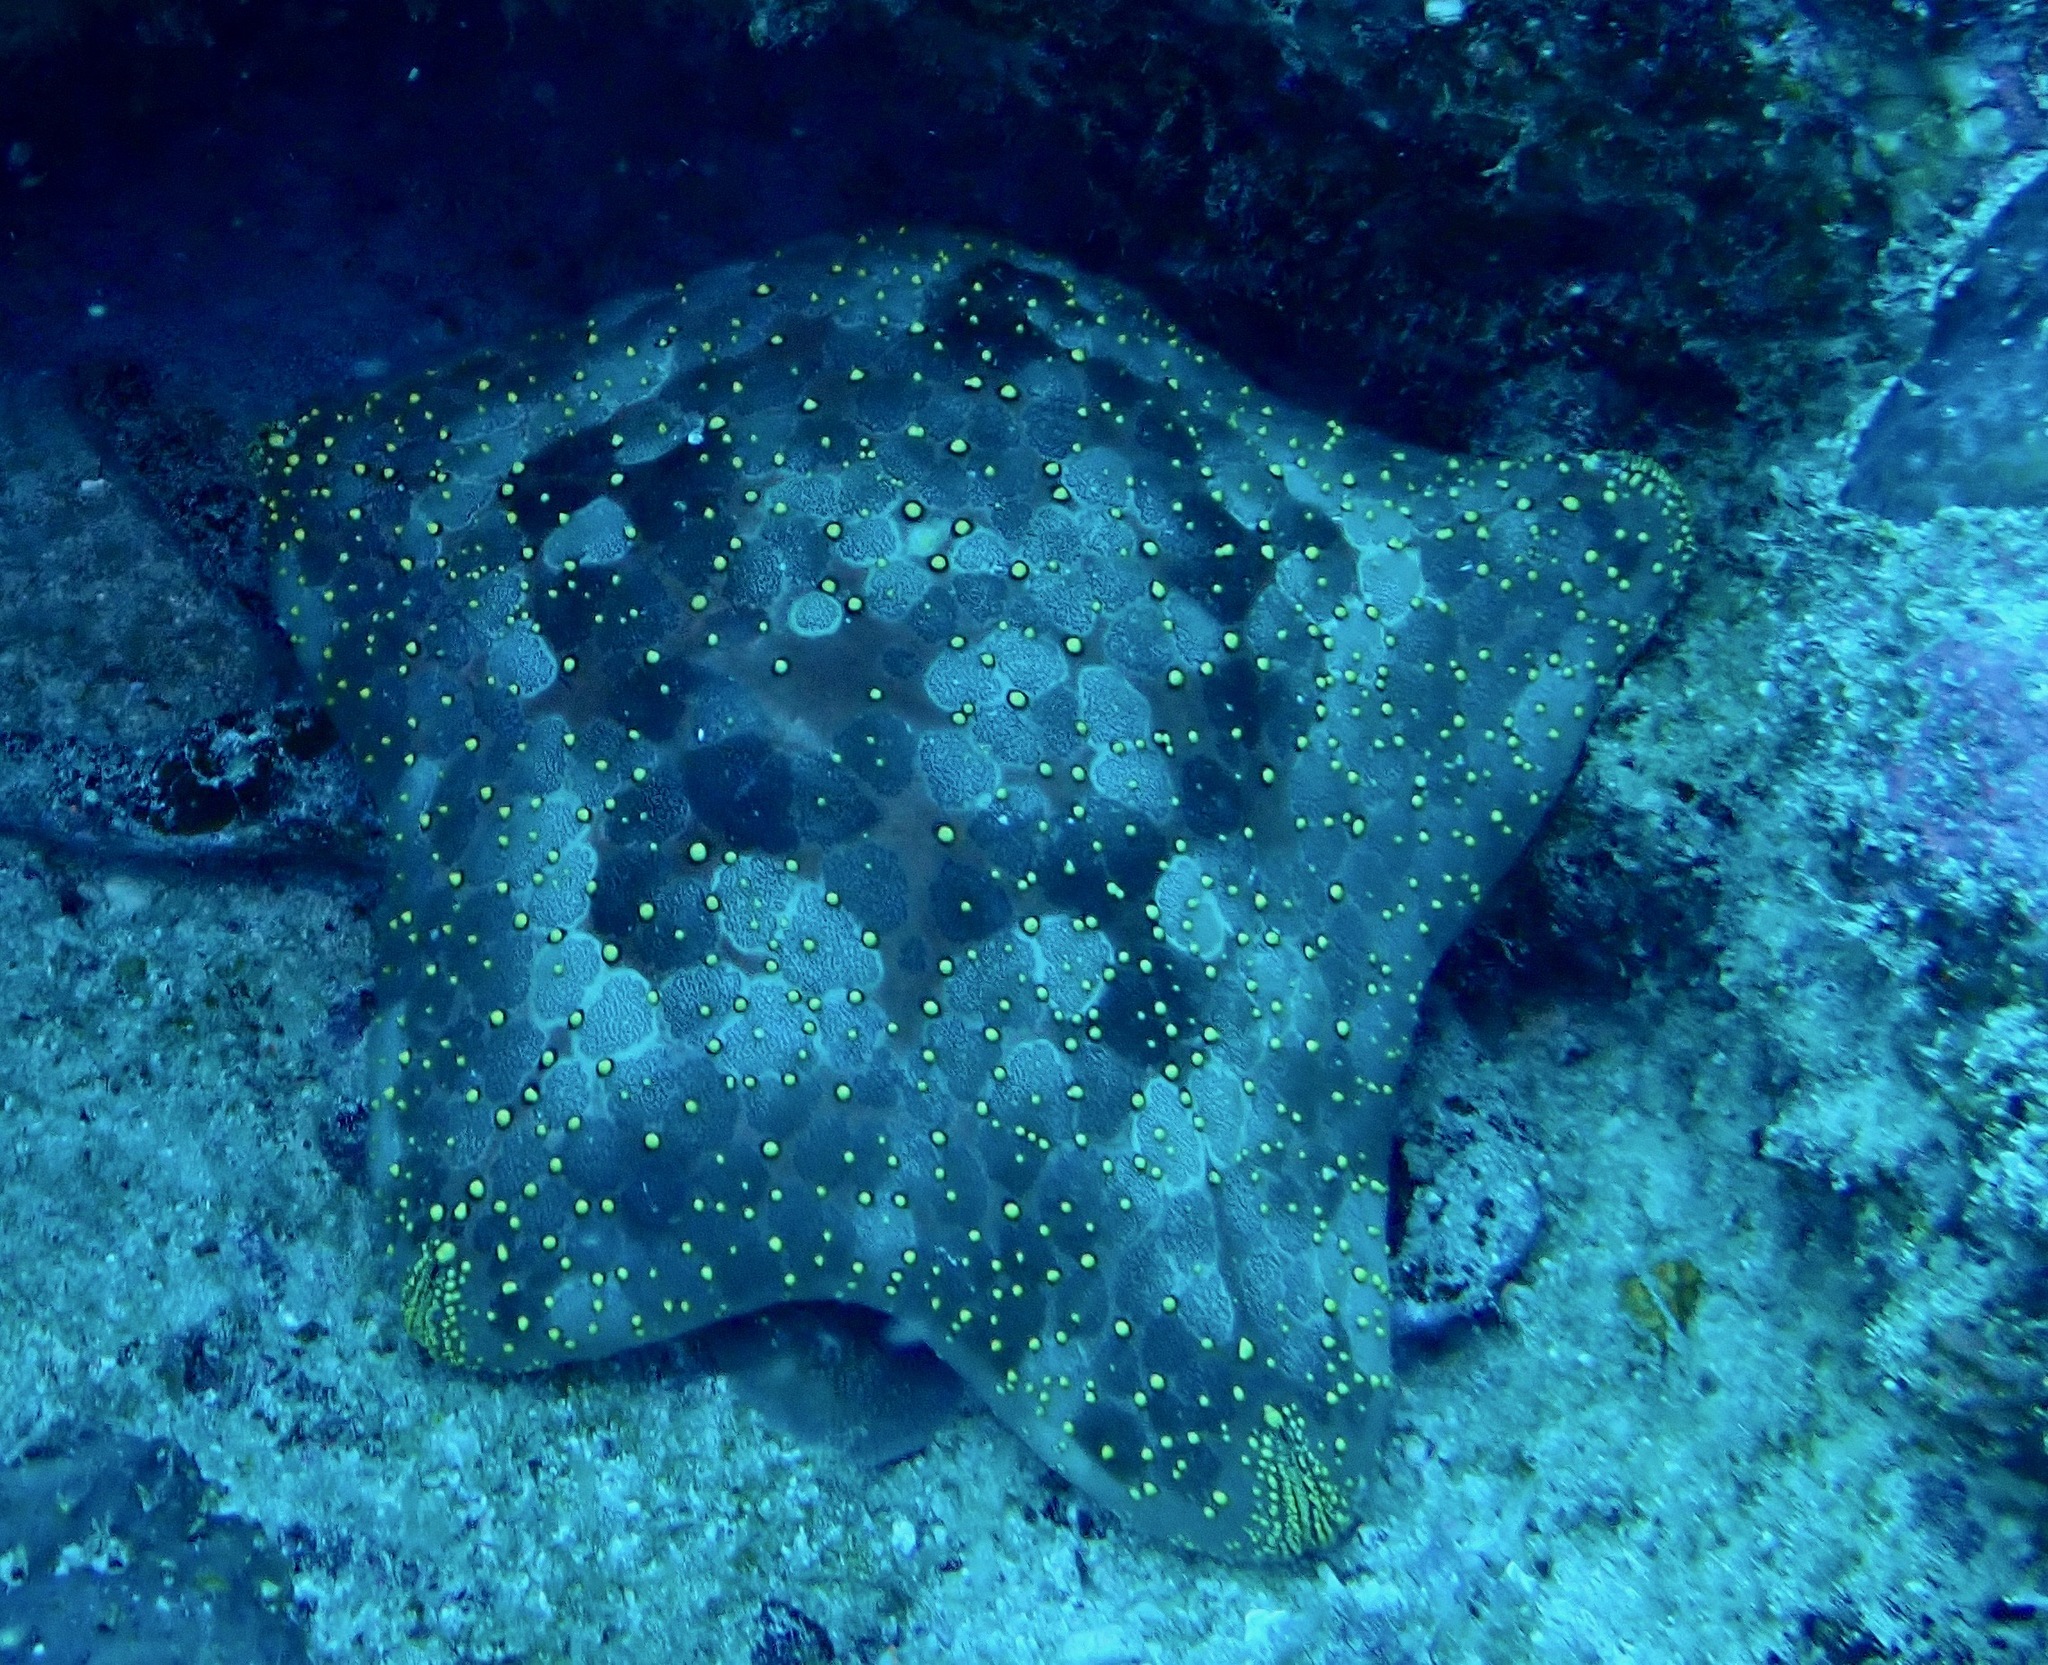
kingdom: Animalia
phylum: Echinodermata
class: Asteroidea
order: Valvatida
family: Oreasteridae
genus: Culcita
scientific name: Culcita novaeguineae
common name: Cushion star
